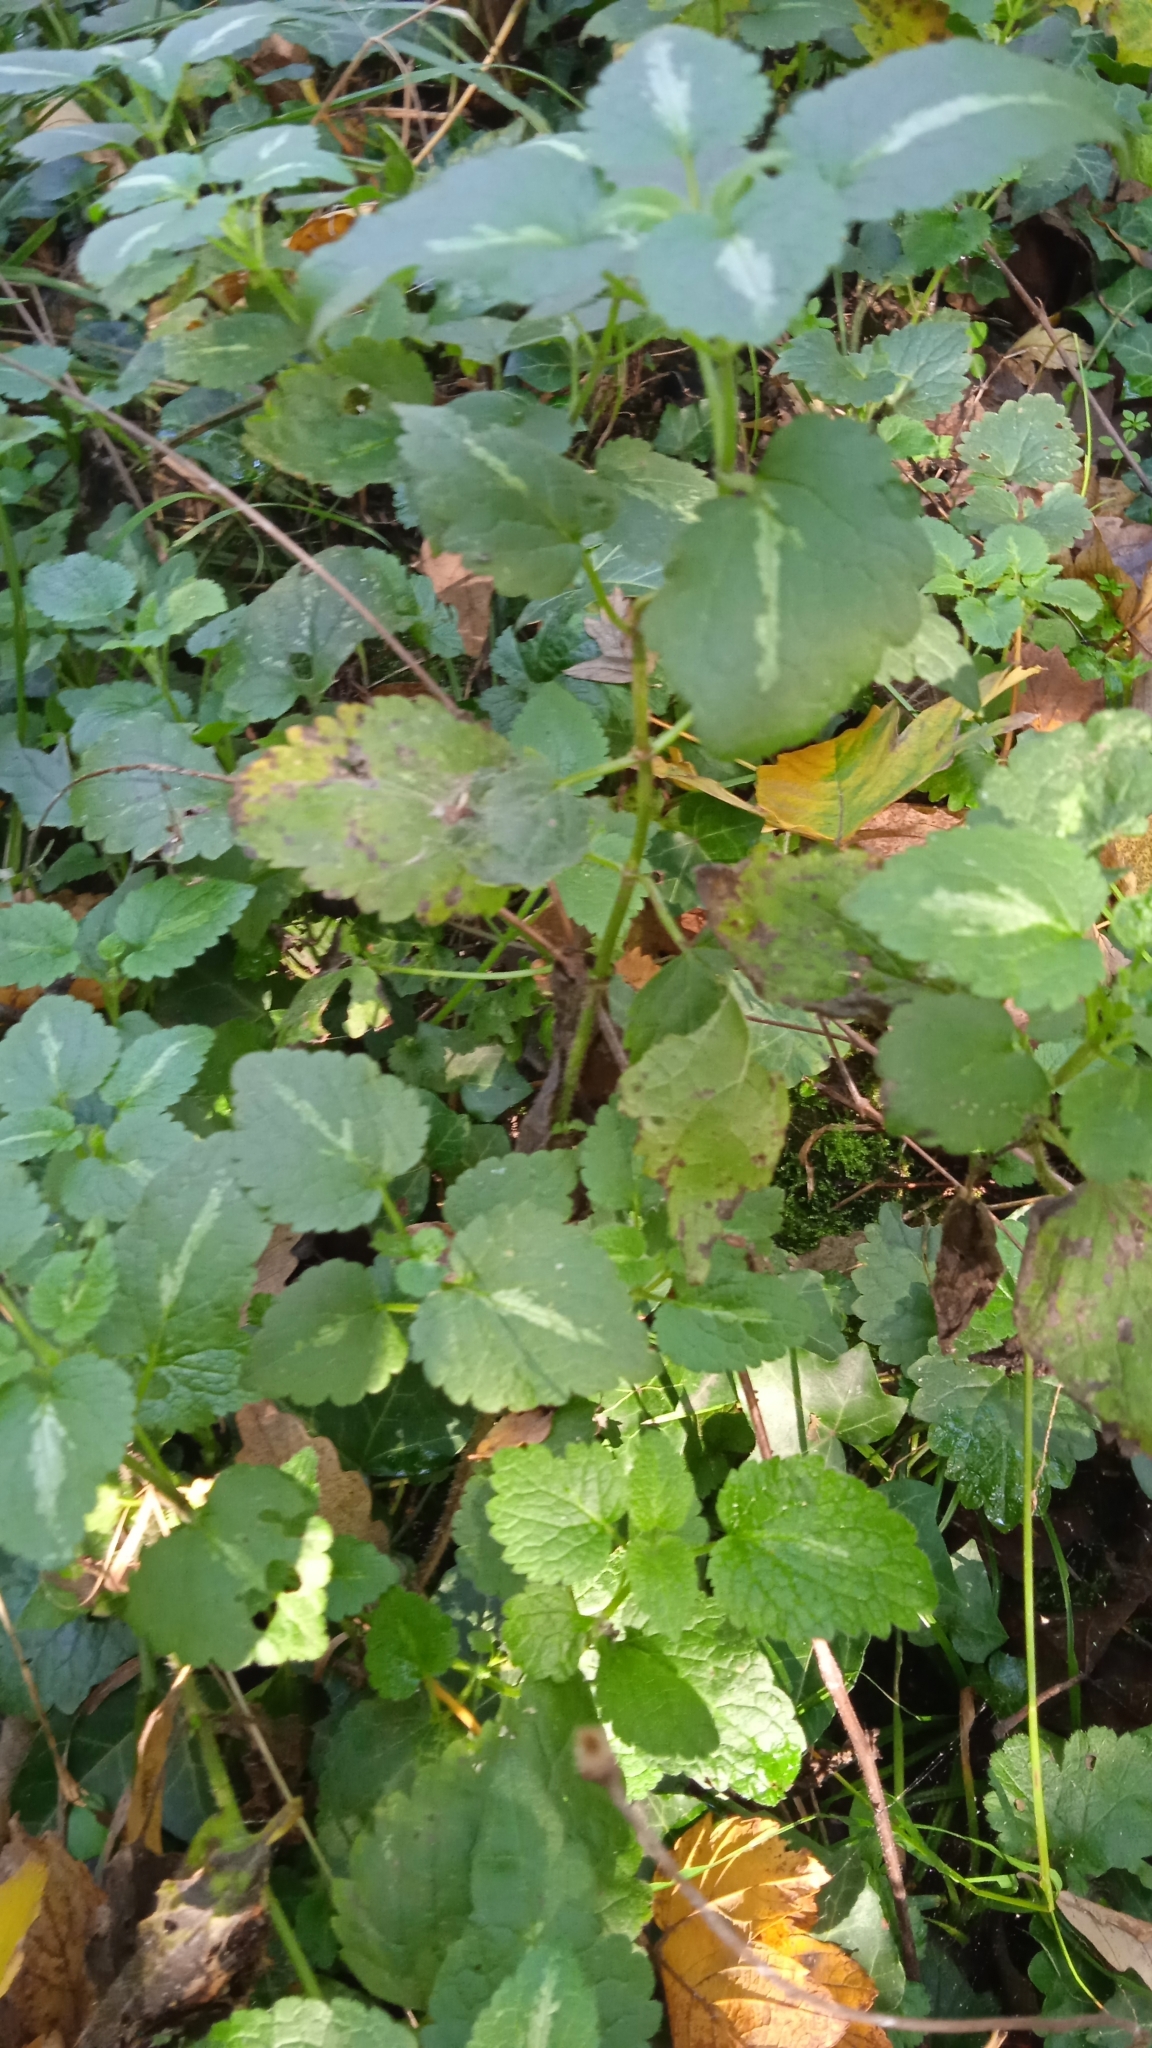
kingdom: Plantae
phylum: Tracheophyta
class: Magnoliopsida
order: Lamiales
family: Lamiaceae
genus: Lamium
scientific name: Lamium maculatum
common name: Spotted dead-nettle
